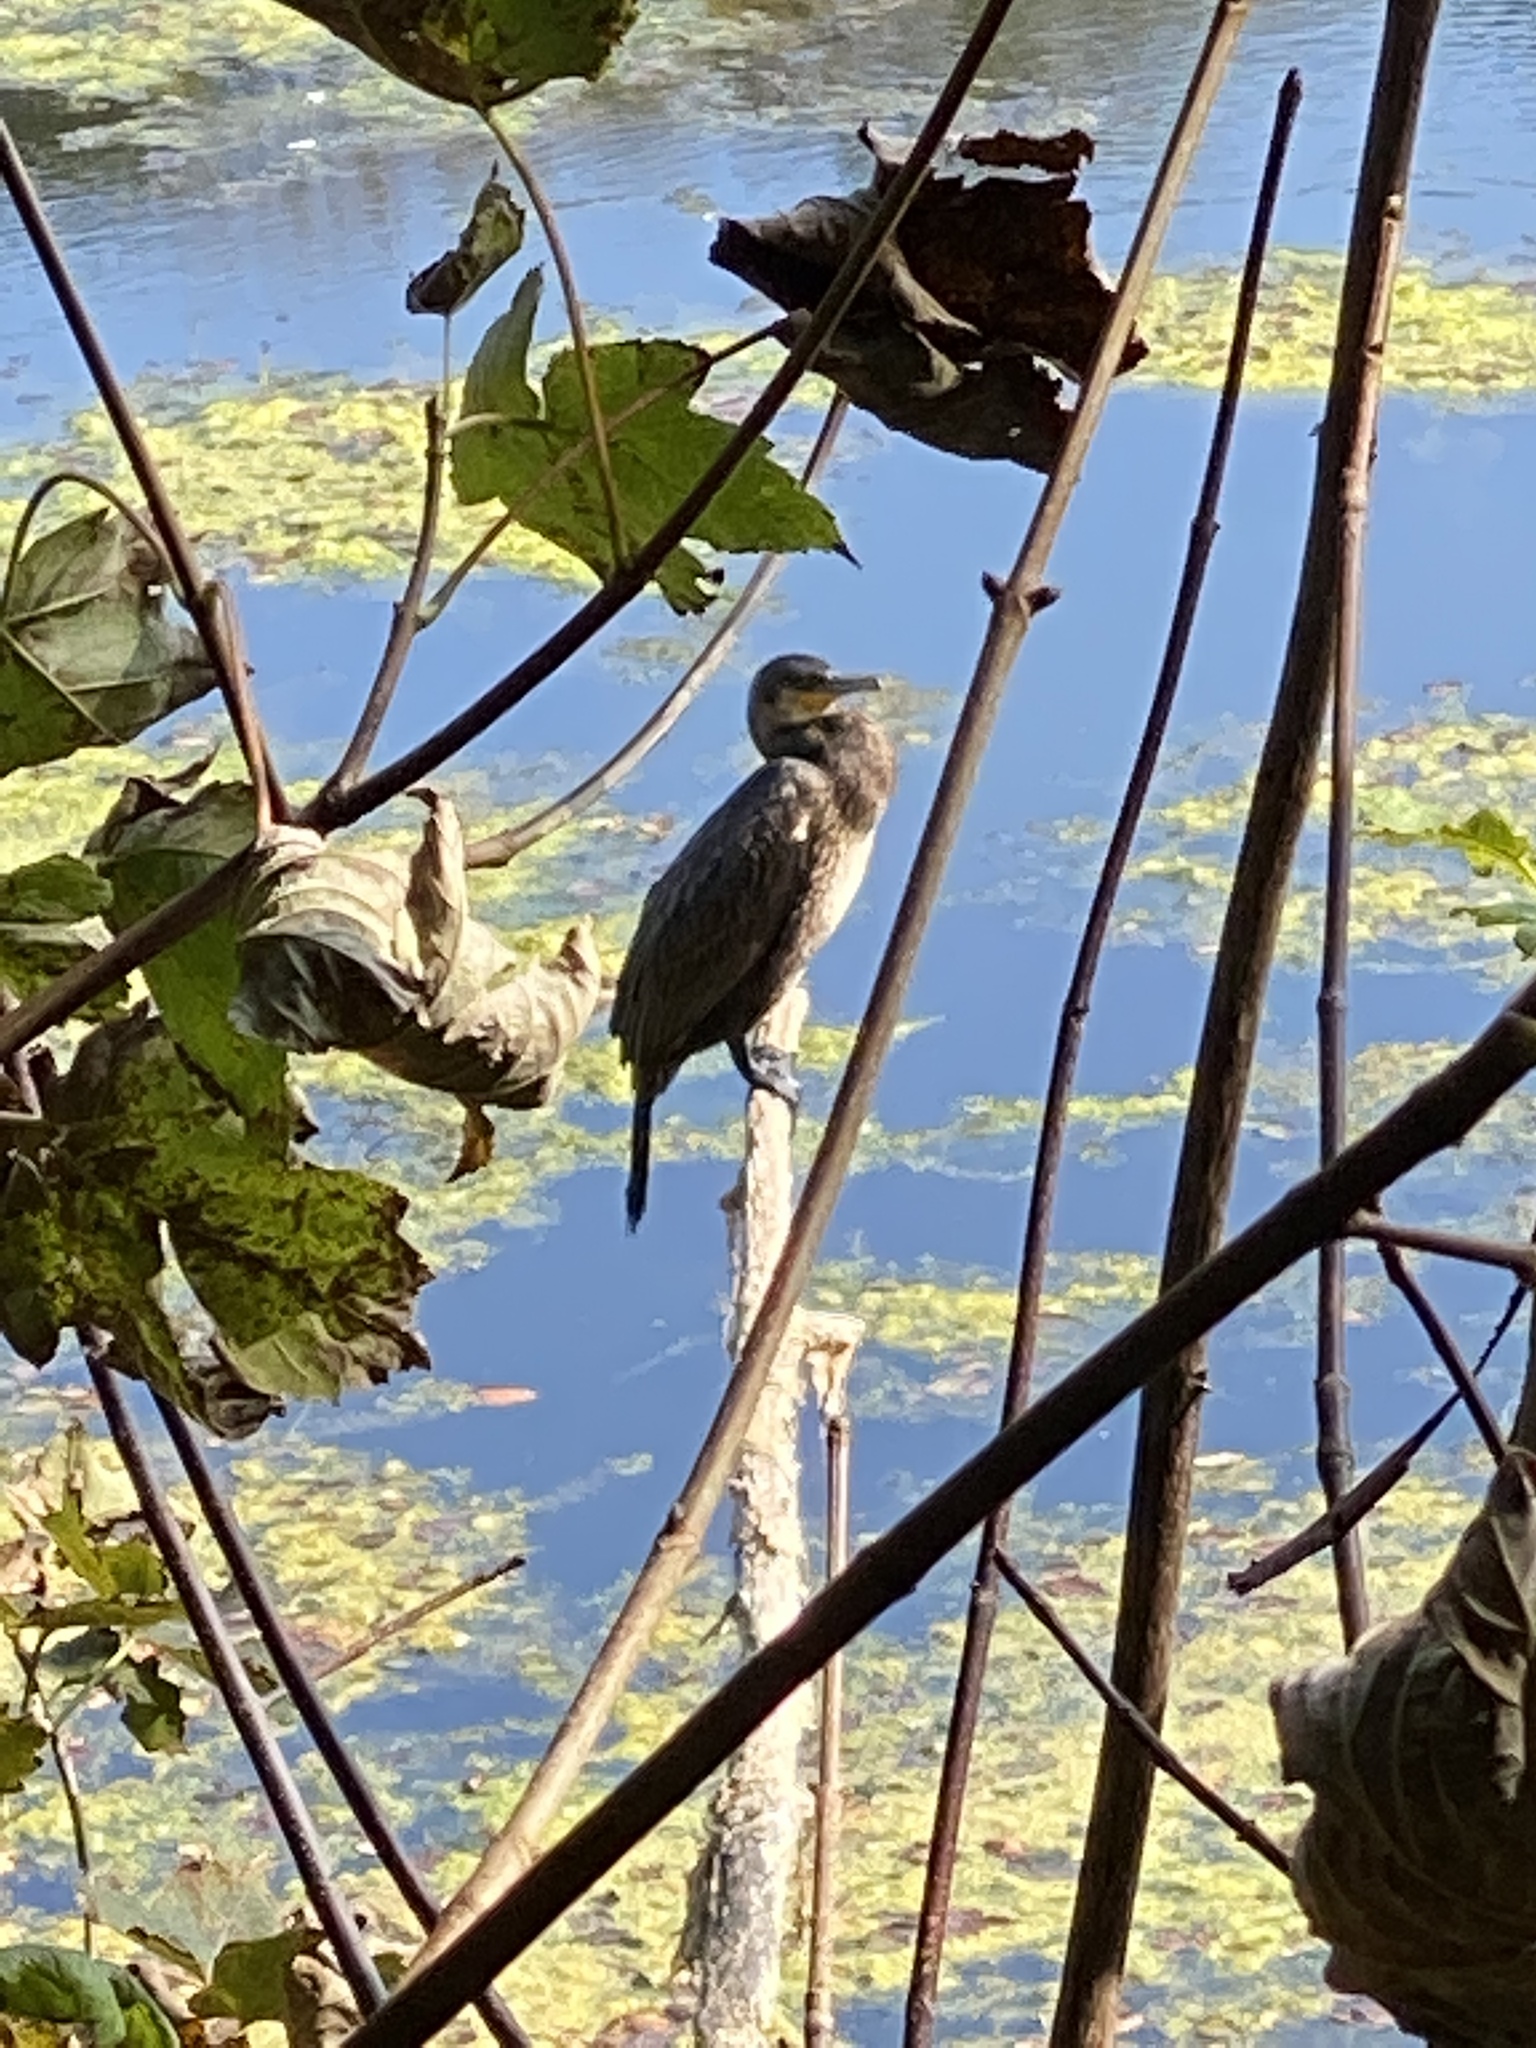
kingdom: Animalia
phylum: Chordata
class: Aves
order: Suliformes
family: Phalacrocoracidae
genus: Phalacrocorax
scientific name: Phalacrocorax carbo
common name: Great cormorant
